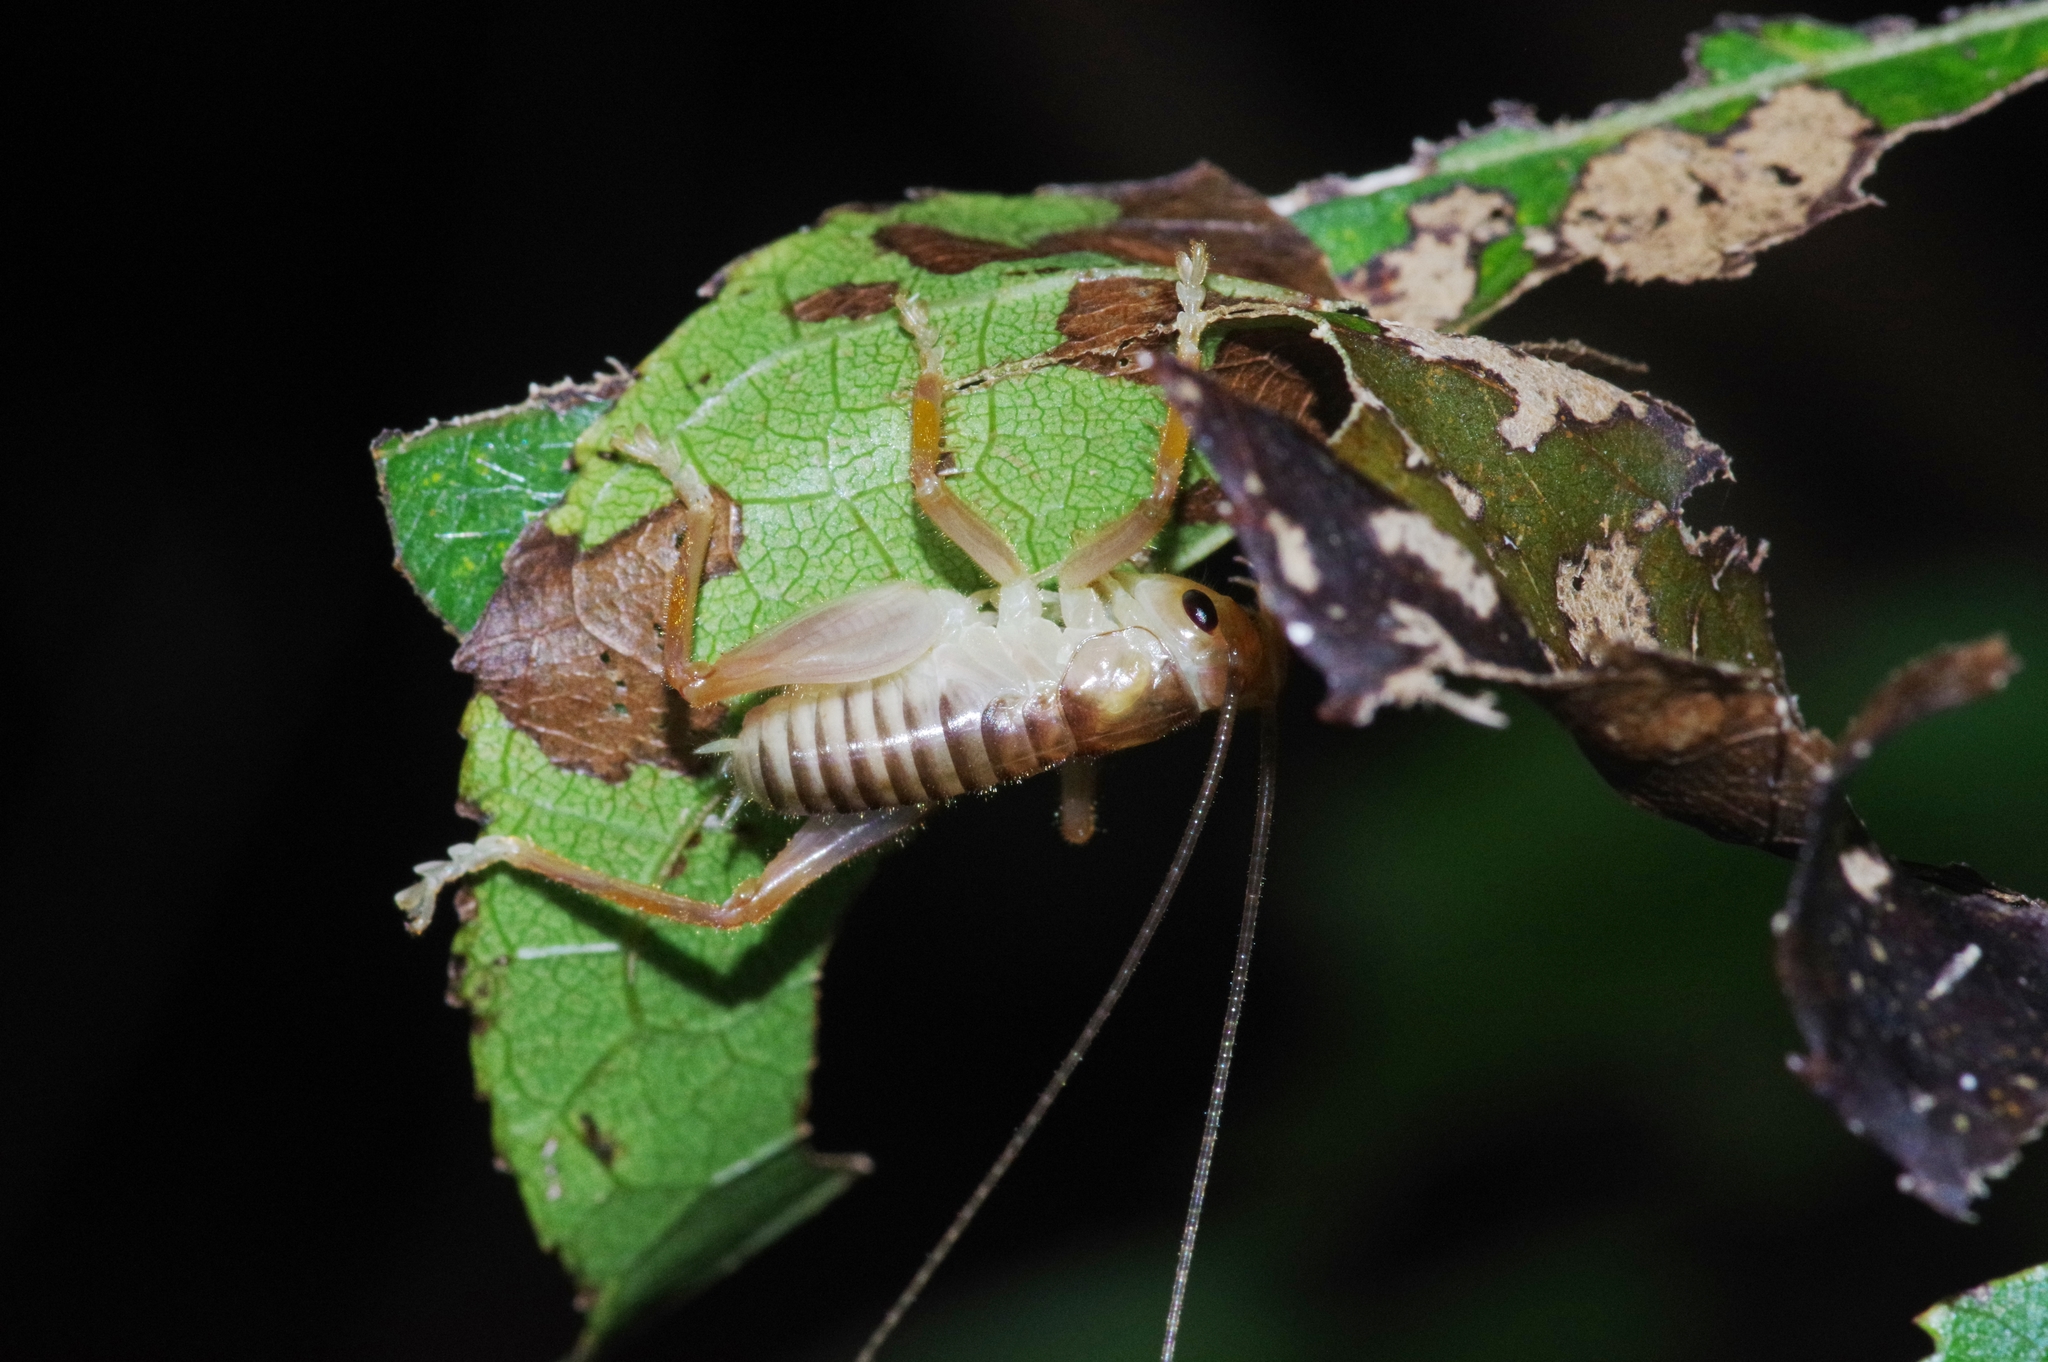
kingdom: Animalia
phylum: Arthropoda
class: Insecta
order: Orthoptera
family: Gryllacrididae
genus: Metriogryllacris
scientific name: Metriogryllacris magna
